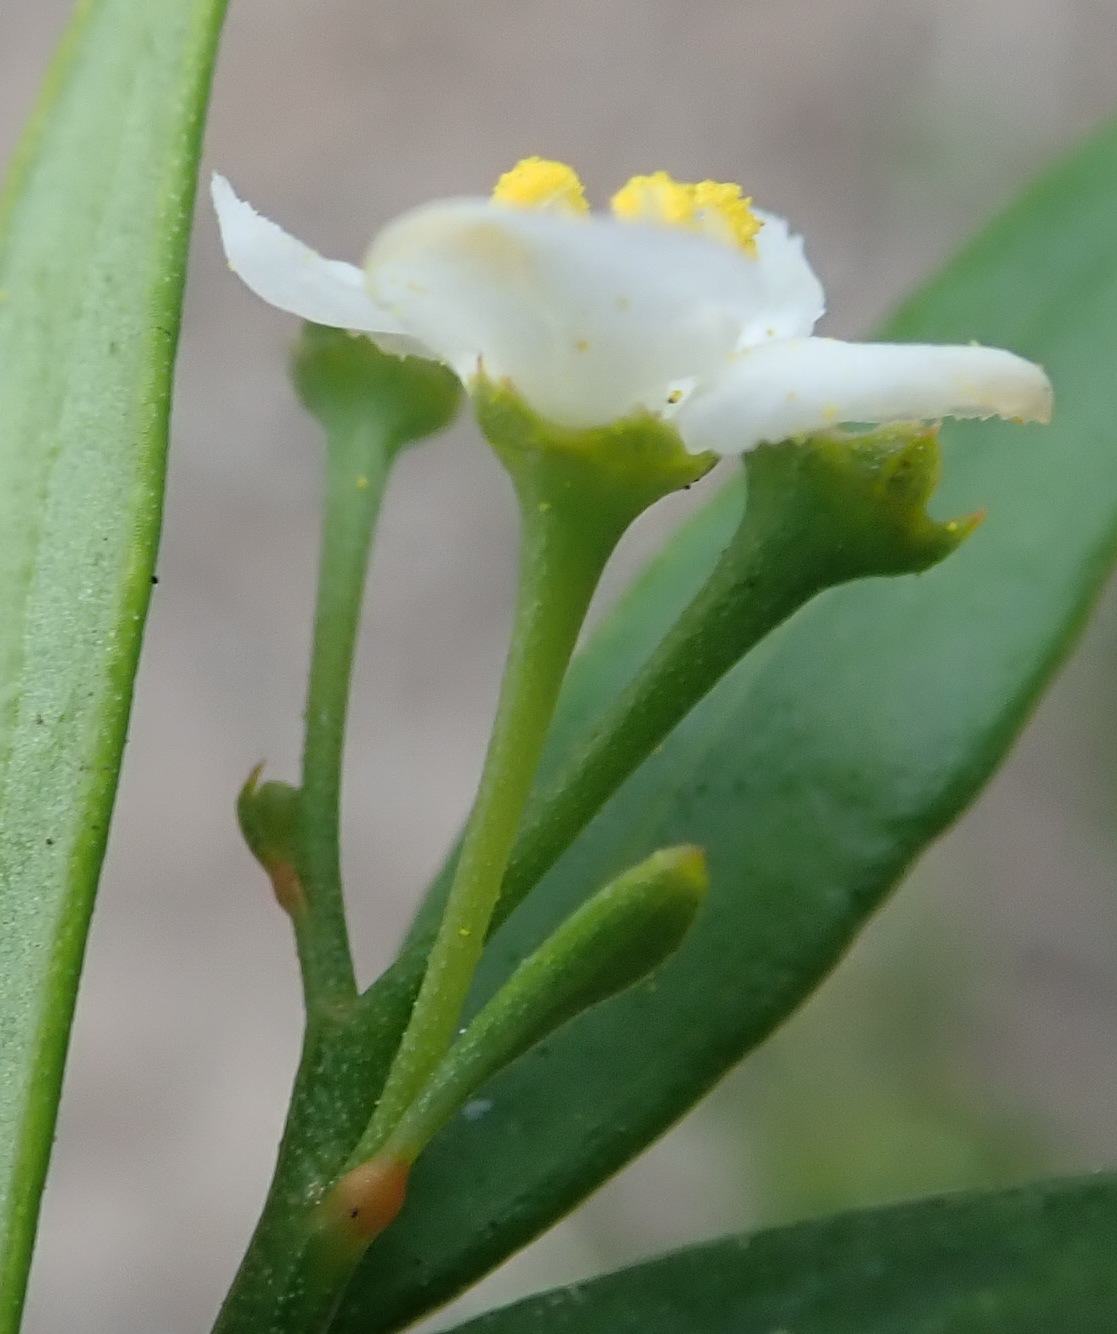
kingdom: Plantae
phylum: Tracheophyta
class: Magnoliopsida
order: Solanales
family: Montiniaceae
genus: Montinia
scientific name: Montinia caryophyllacea
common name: Wild clove-bush
